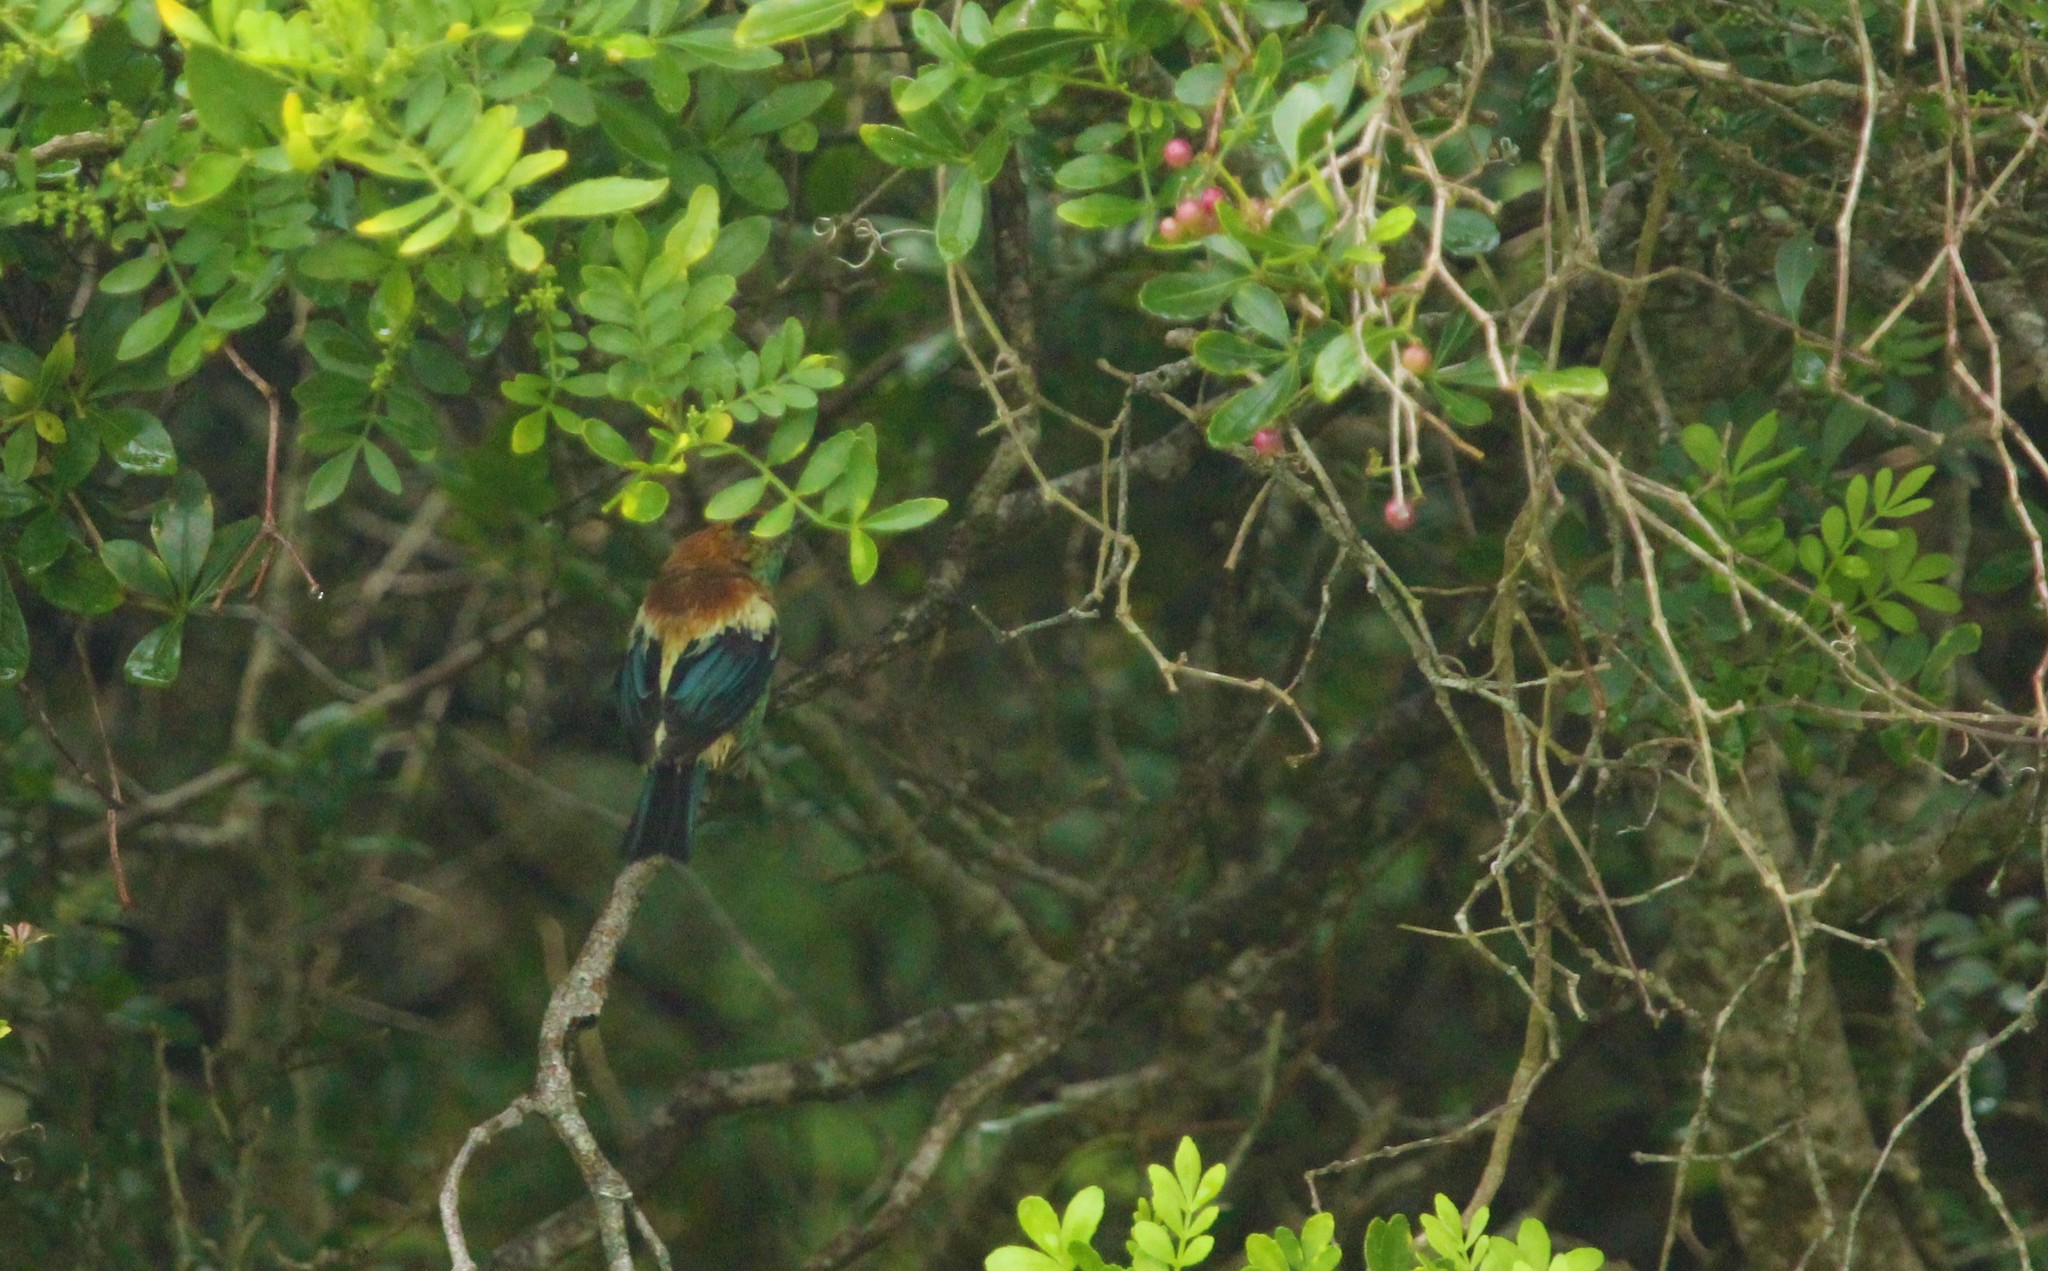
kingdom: Animalia
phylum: Chordata
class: Aves
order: Passeriformes
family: Thraupidae
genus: Stilpnia
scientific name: Stilpnia preciosa
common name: Chestnut-backed tanager
